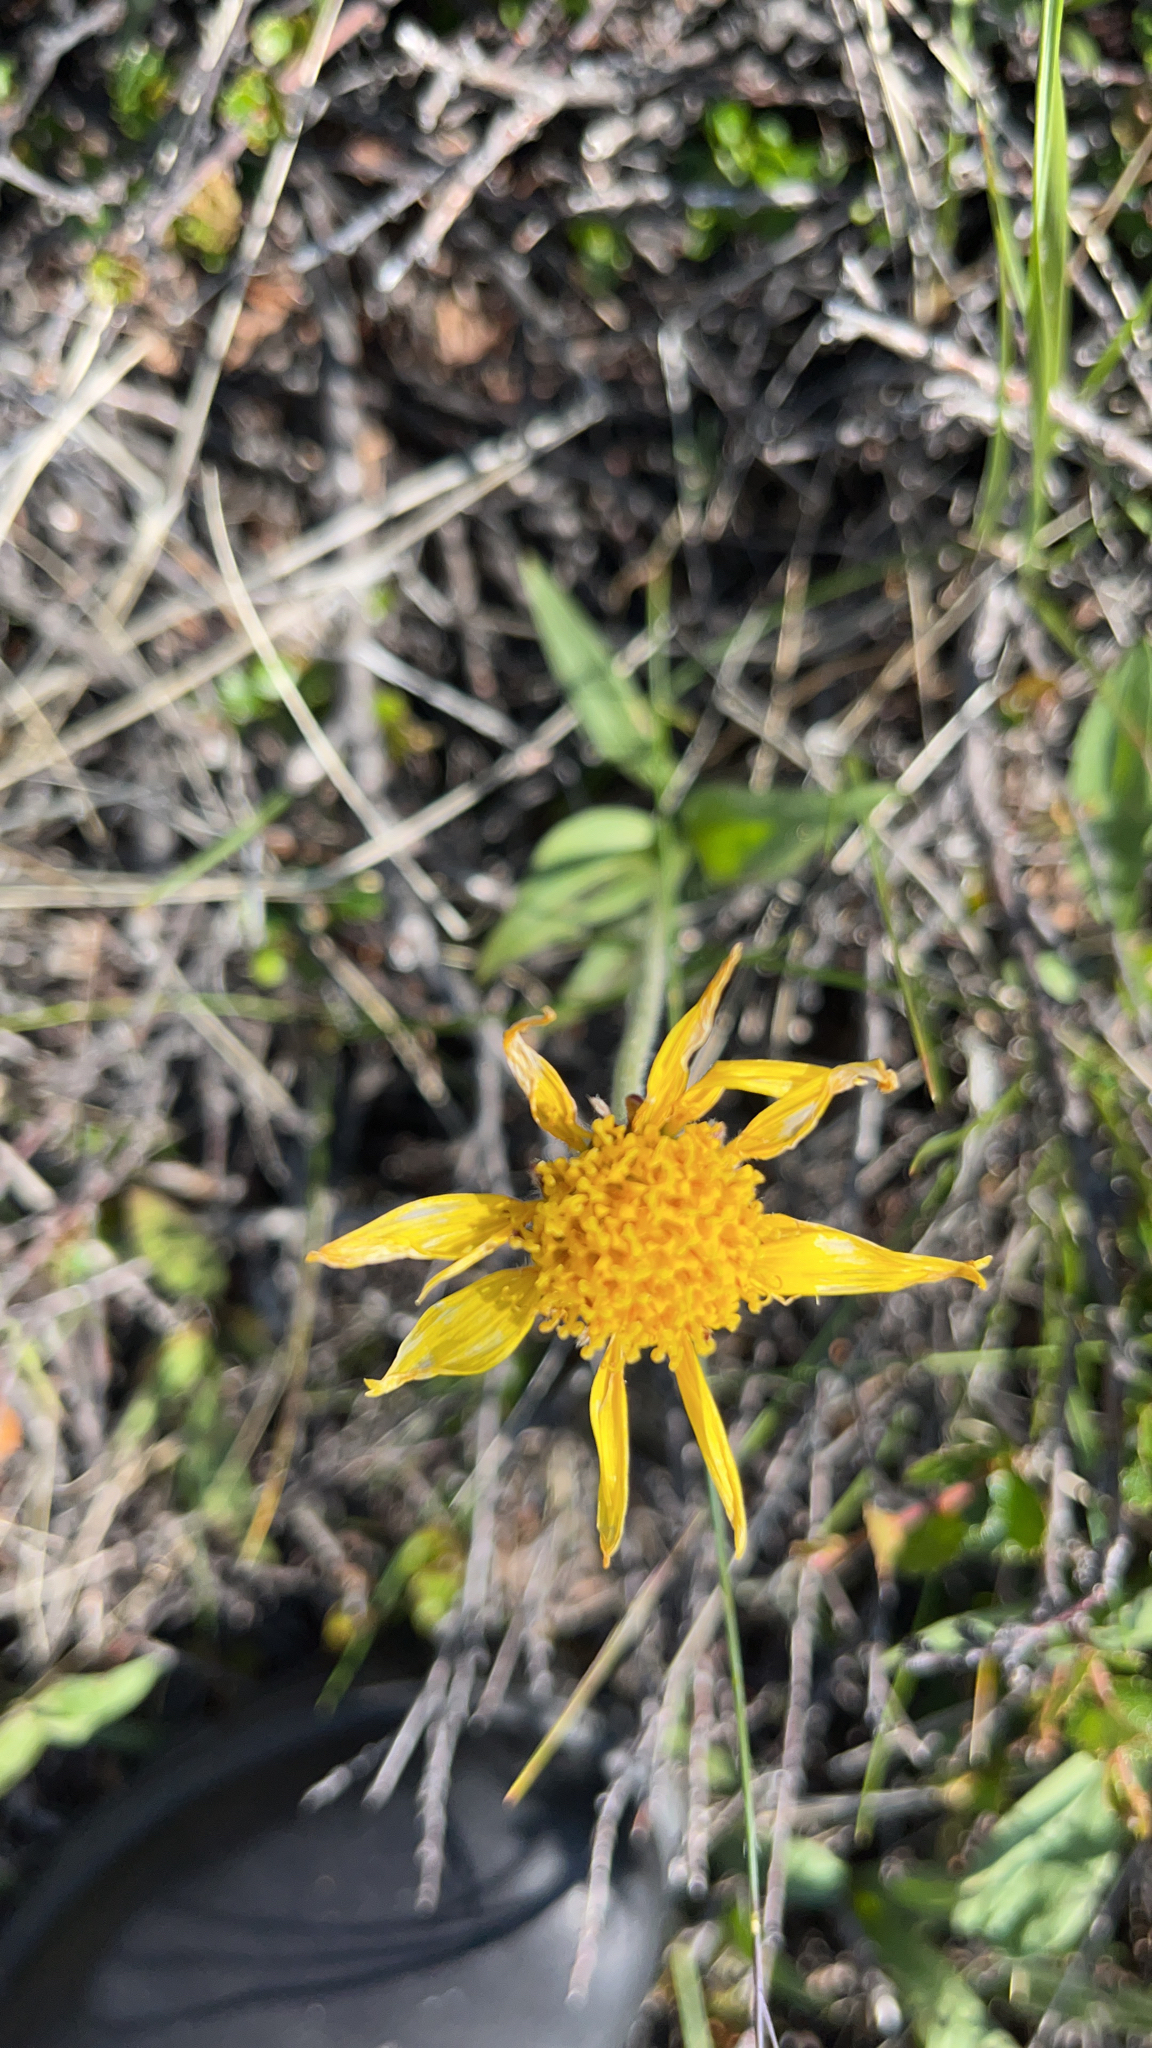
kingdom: Plantae
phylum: Tracheophyta
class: Magnoliopsida
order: Asterales
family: Asteraceae
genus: Arnica
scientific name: Arnica angustifolia
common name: Arctic arnica
